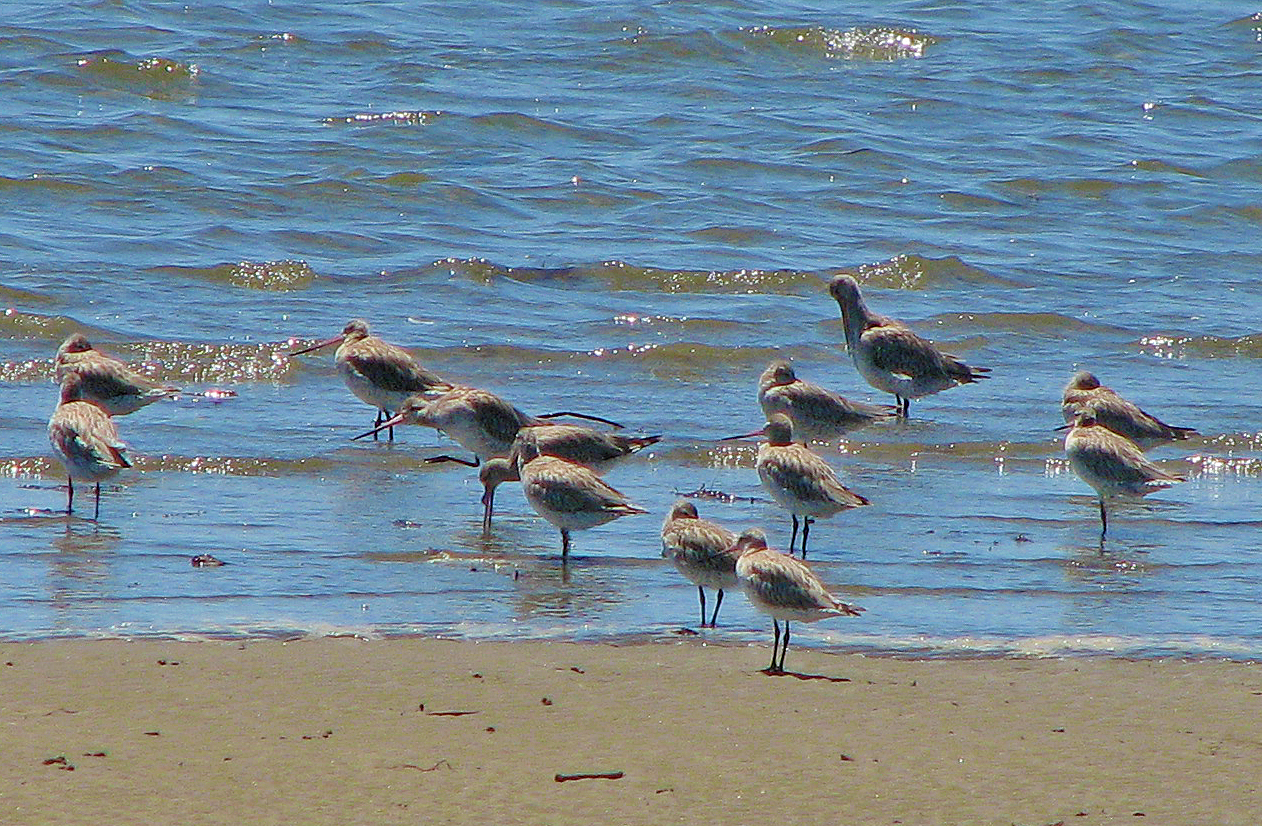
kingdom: Animalia
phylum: Chordata
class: Aves
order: Charadriiformes
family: Scolopacidae
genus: Limosa
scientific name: Limosa lapponica
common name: Bar-tailed godwit
